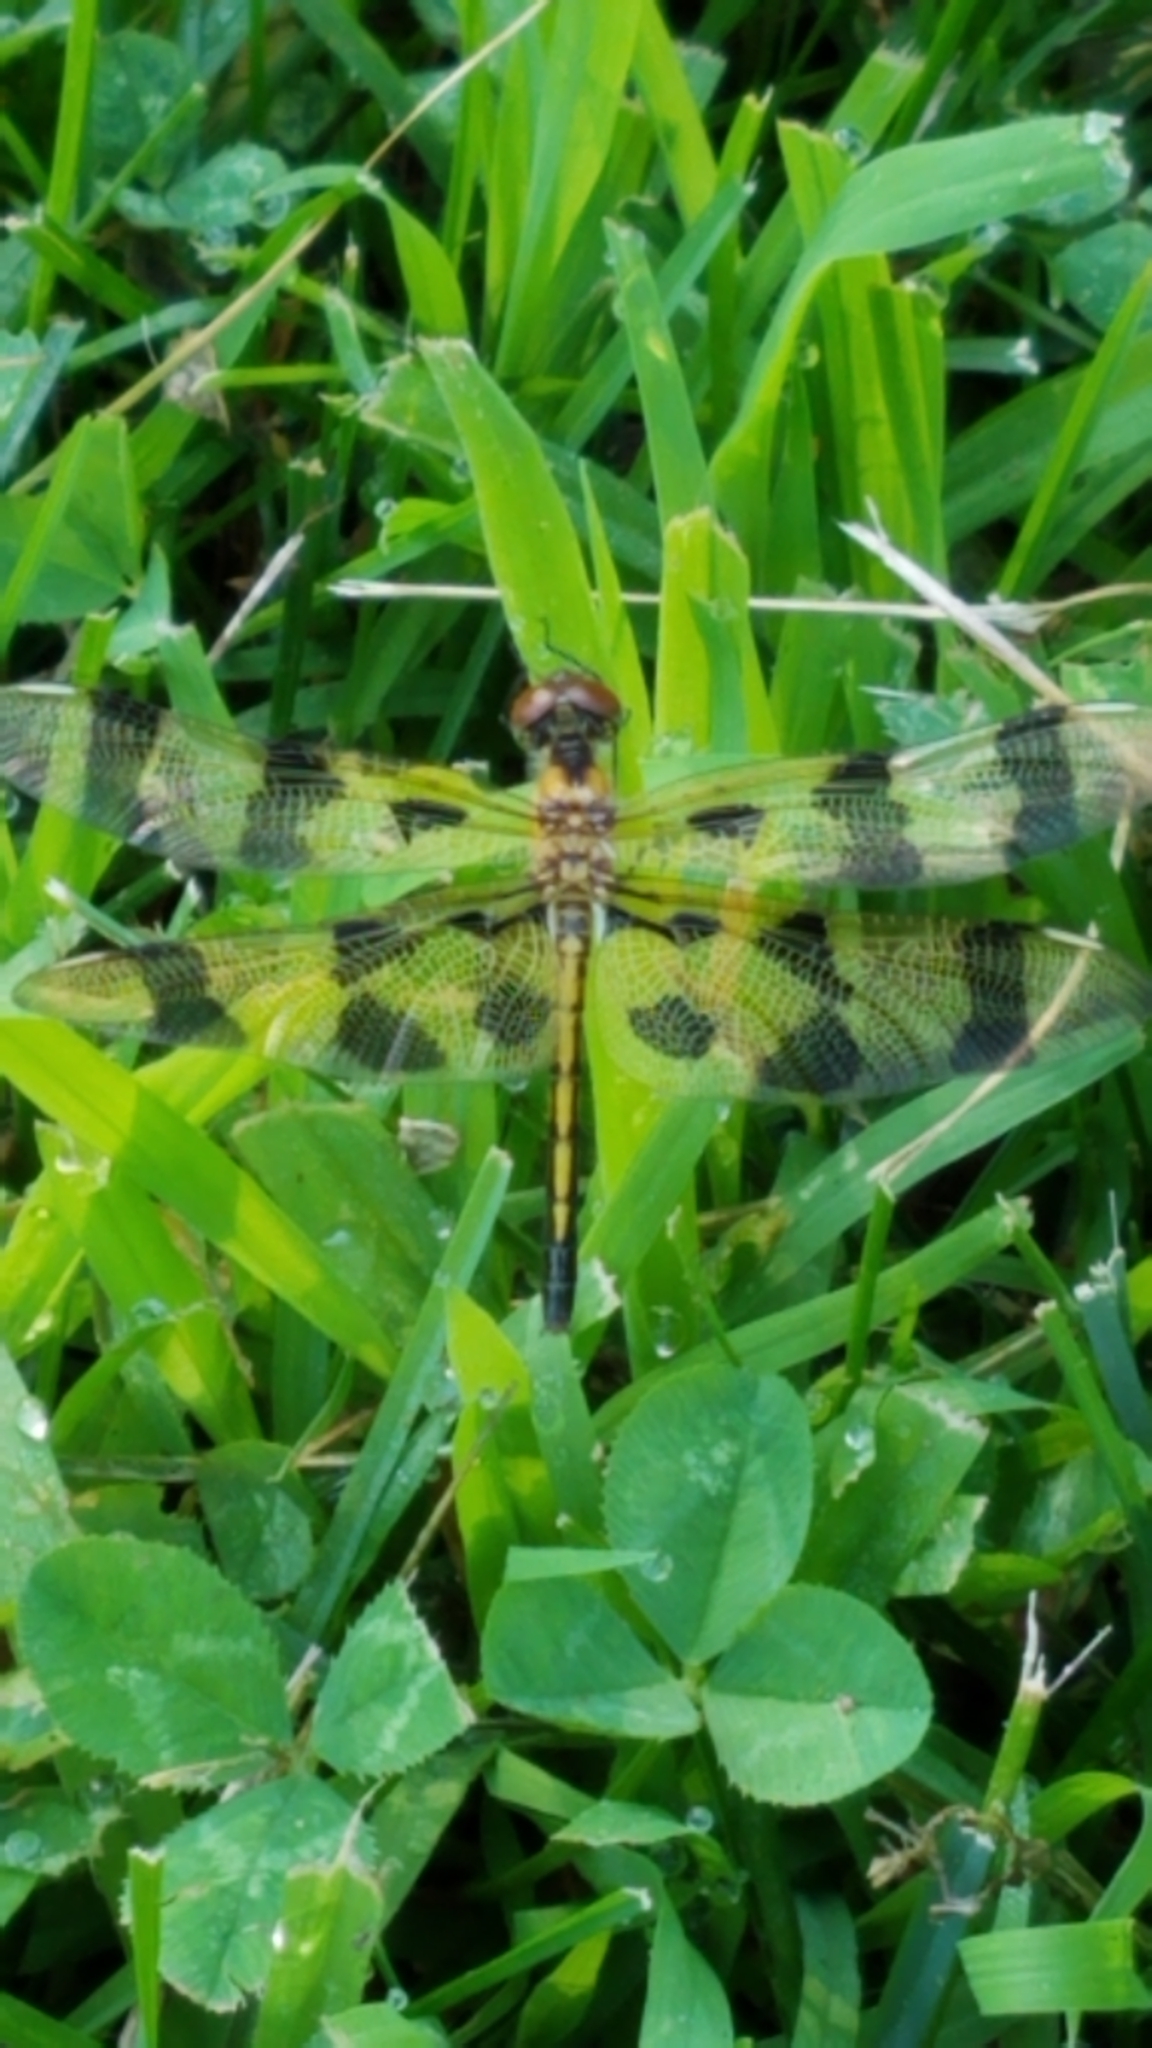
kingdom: Animalia
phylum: Arthropoda
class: Insecta
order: Odonata
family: Libellulidae
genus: Celithemis
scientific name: Celithemis eponina
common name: Halloween pennant
